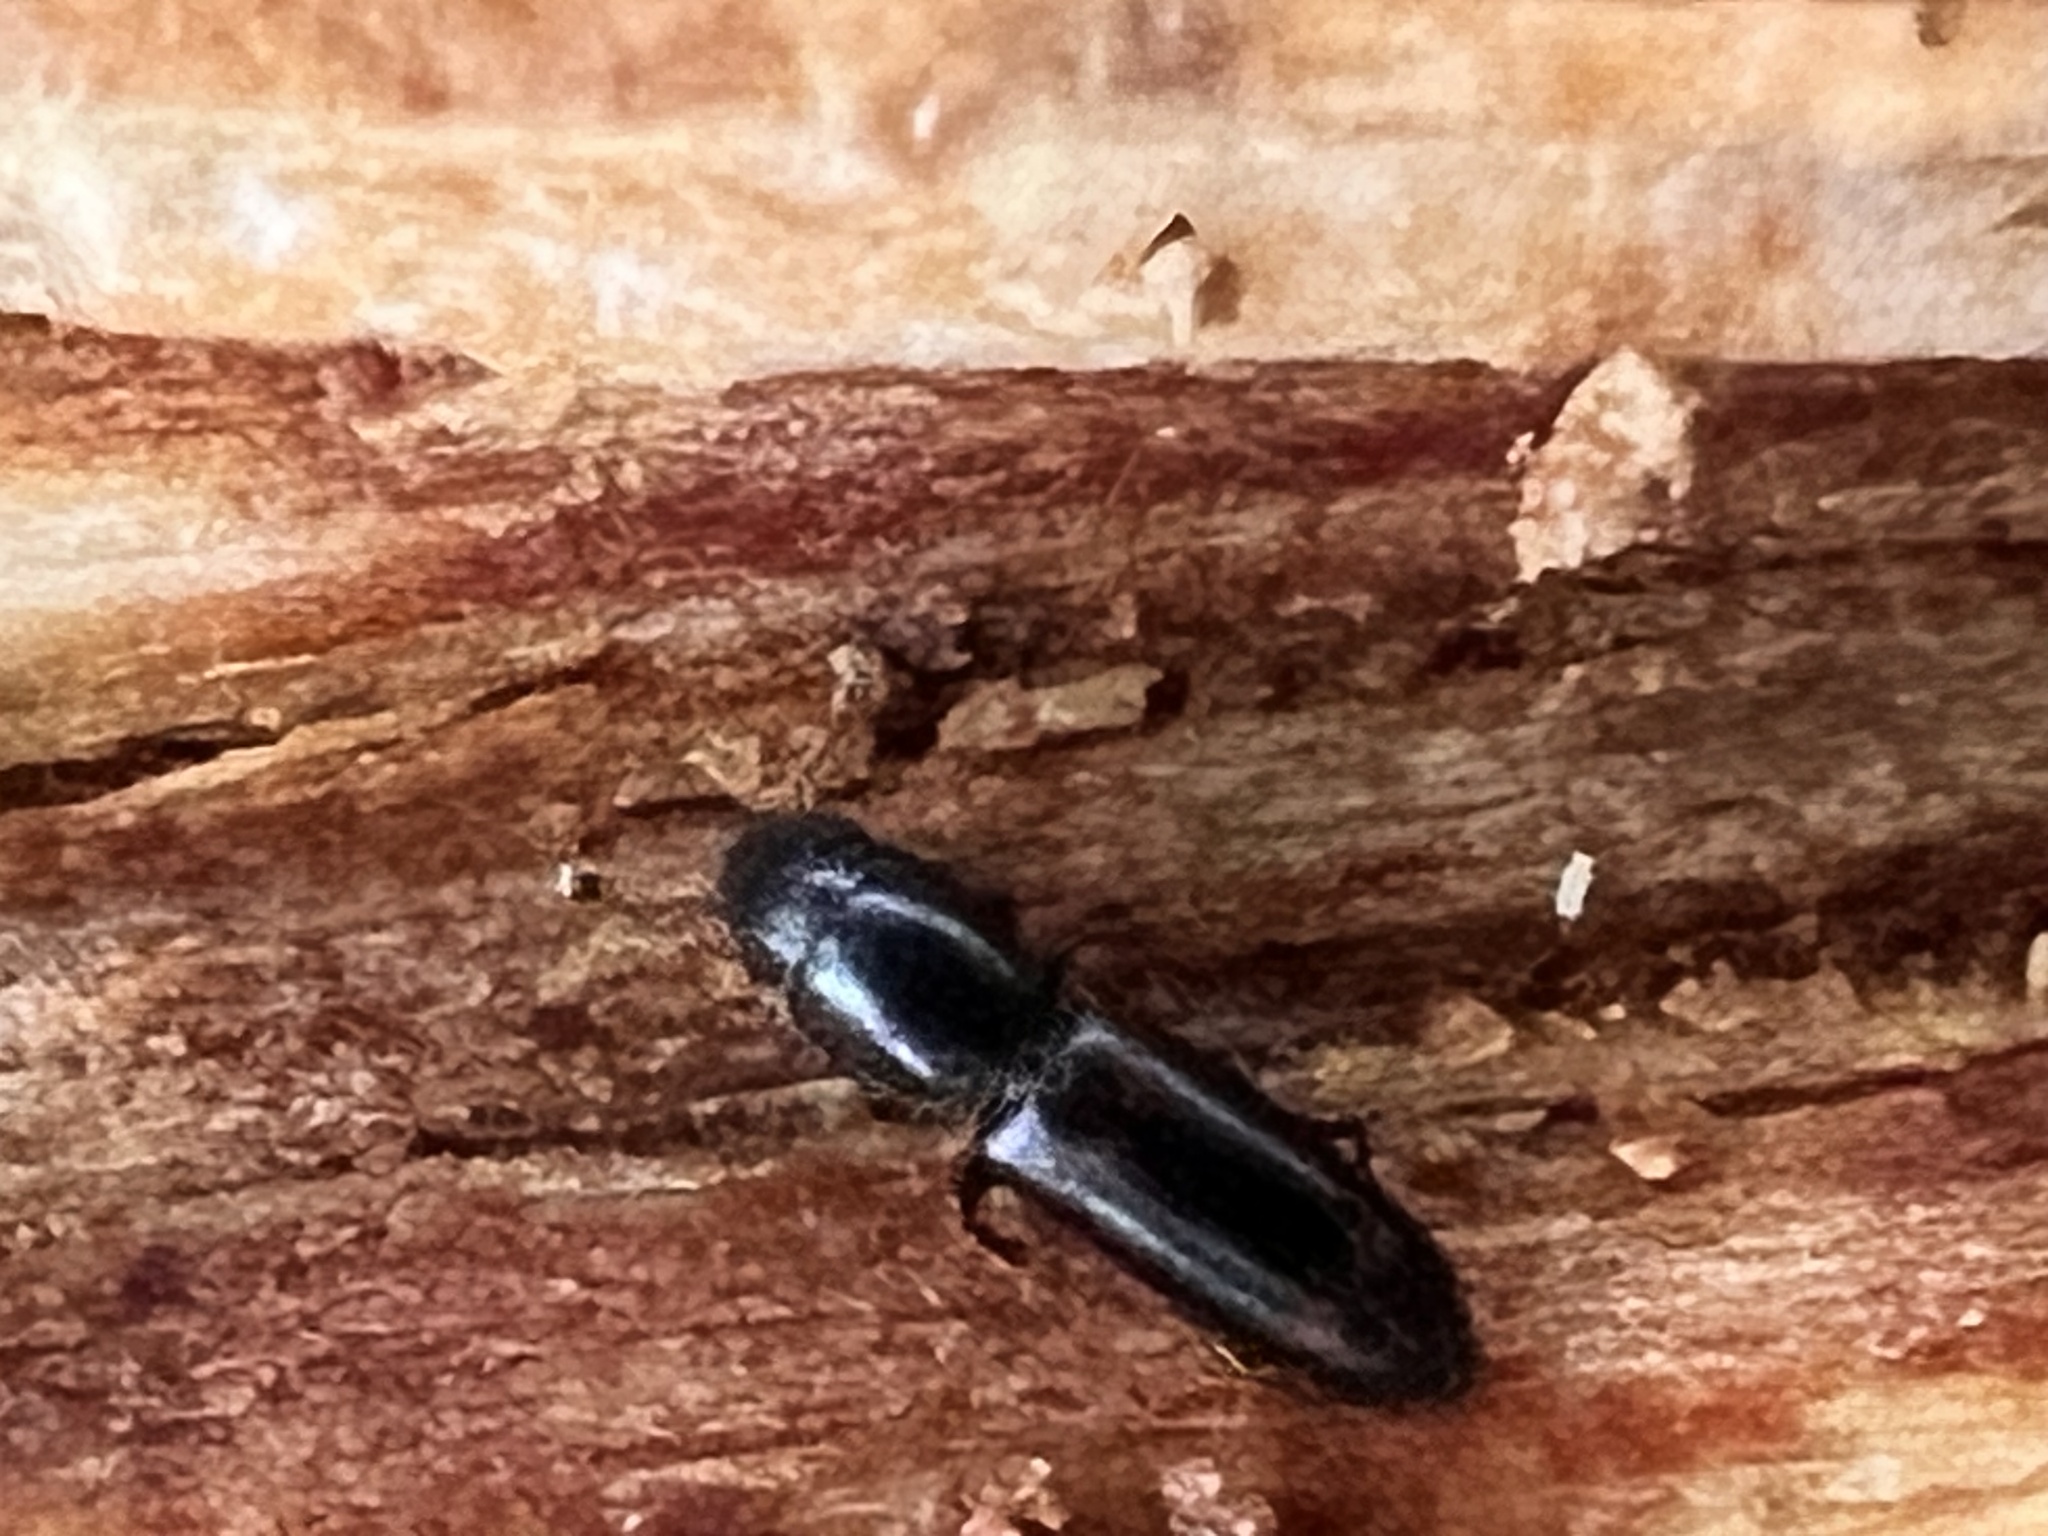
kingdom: Animalia
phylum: Arthropoda
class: Insecta
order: Coleoptera
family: Monotomidae
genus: Rhizophagus
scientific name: Rhizophagus sayi
